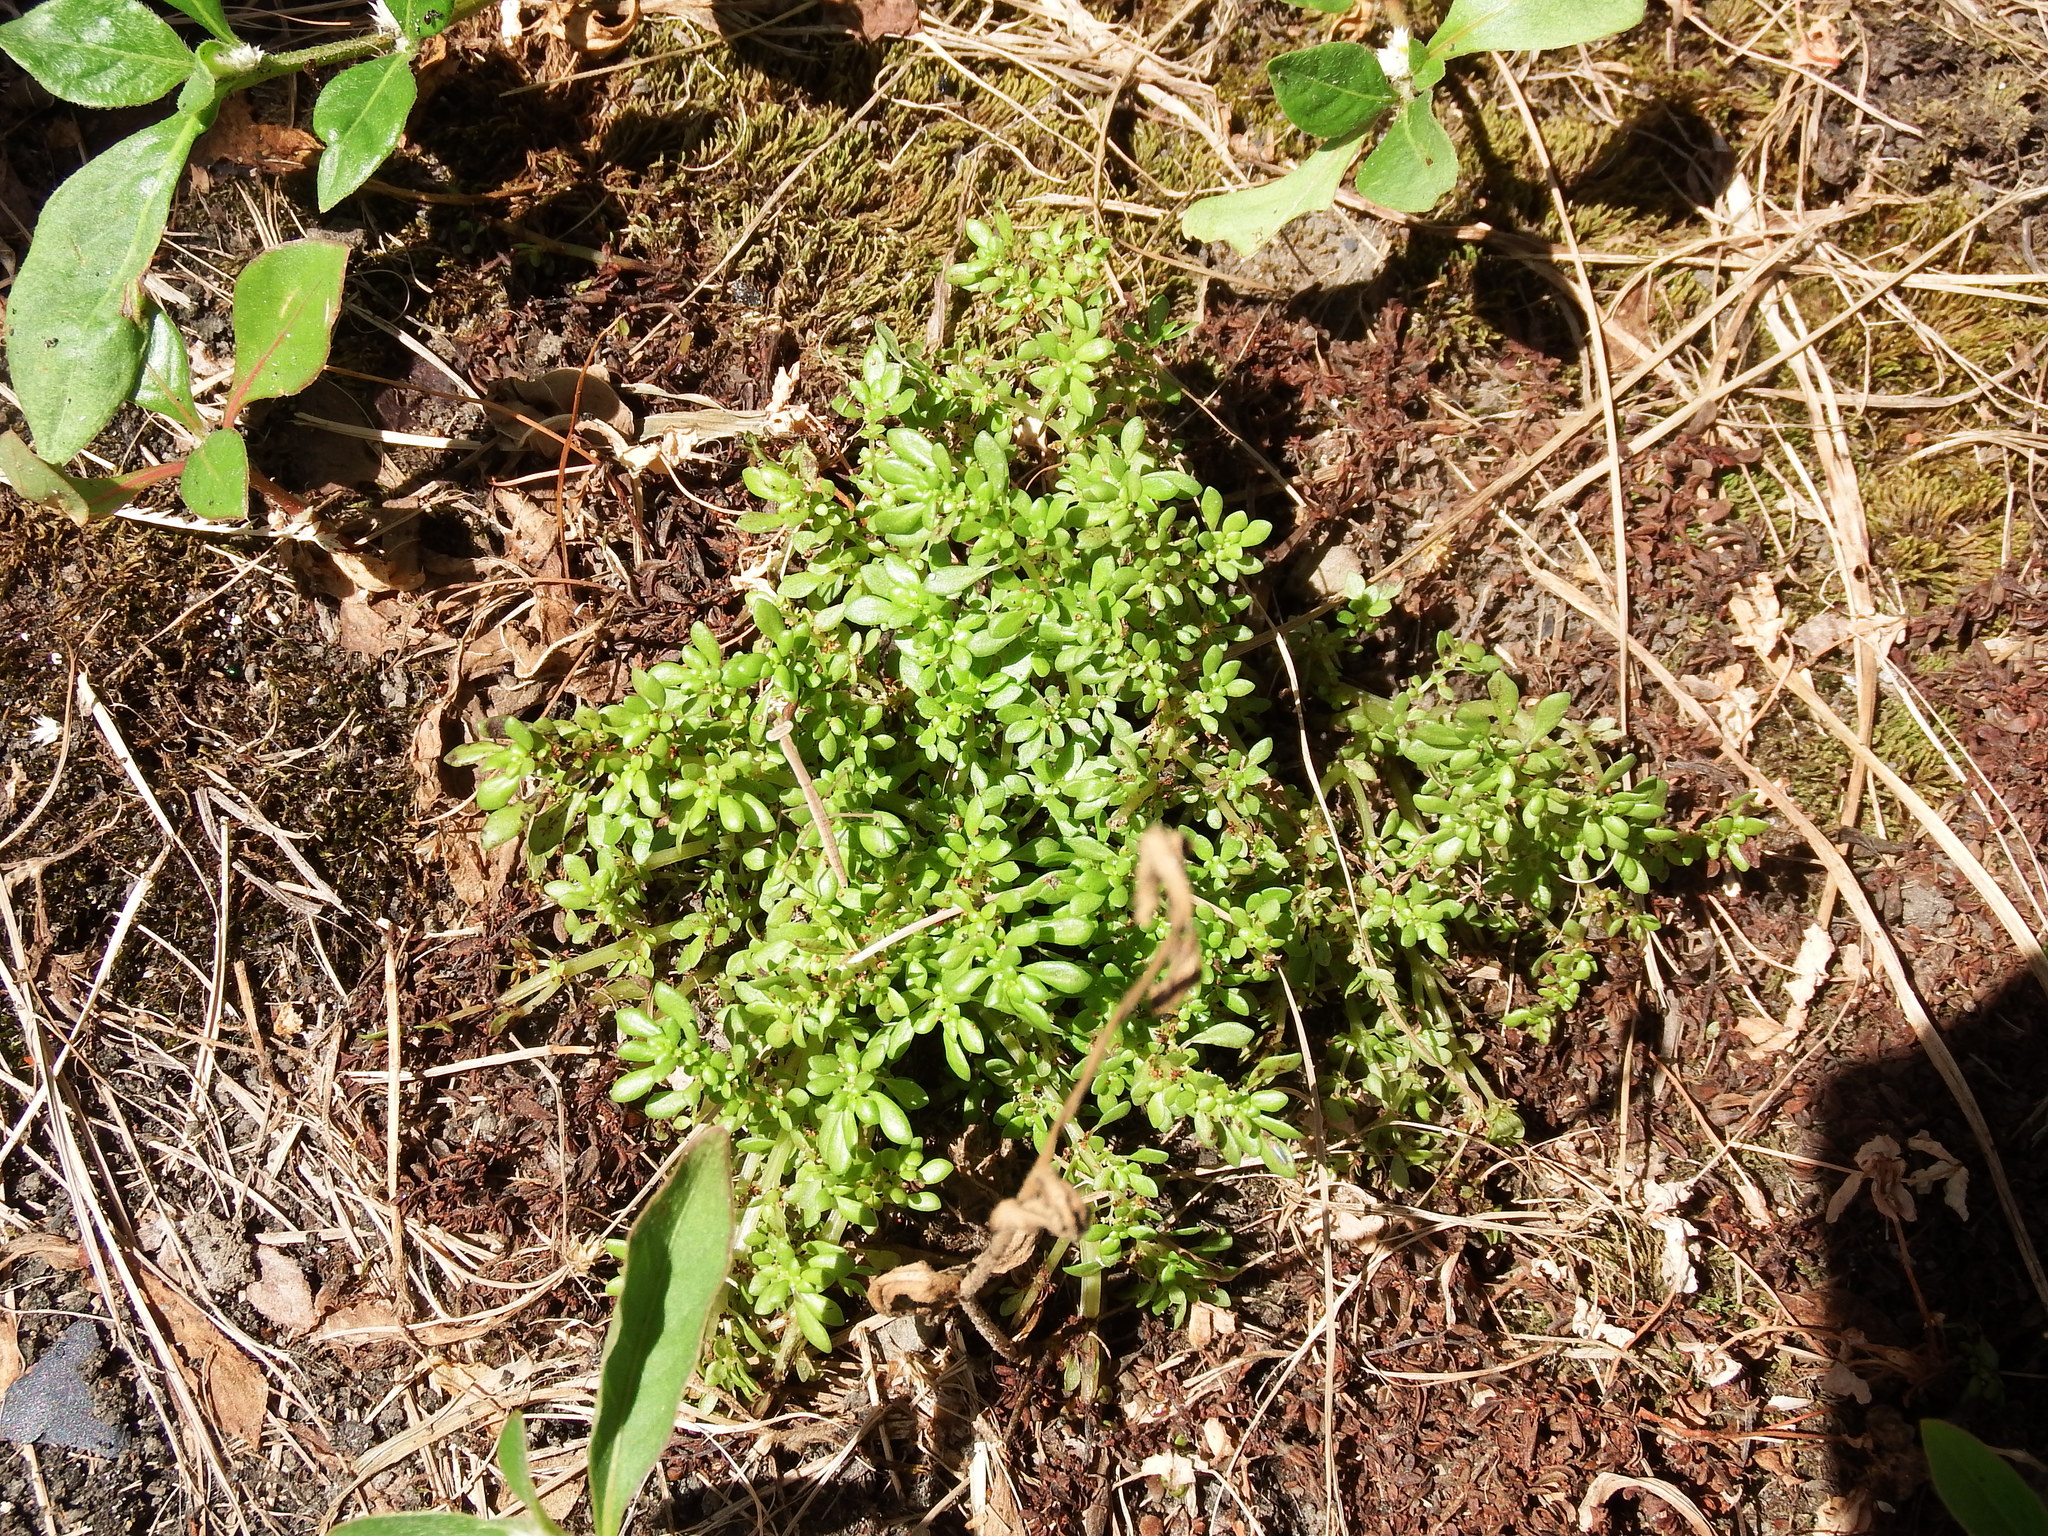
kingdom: Plantae
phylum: Tracheophyta
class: Magnoliopsida
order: Rosales
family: Urticaceae
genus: Pilea
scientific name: Pilea microphylla
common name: Artillery-plant
